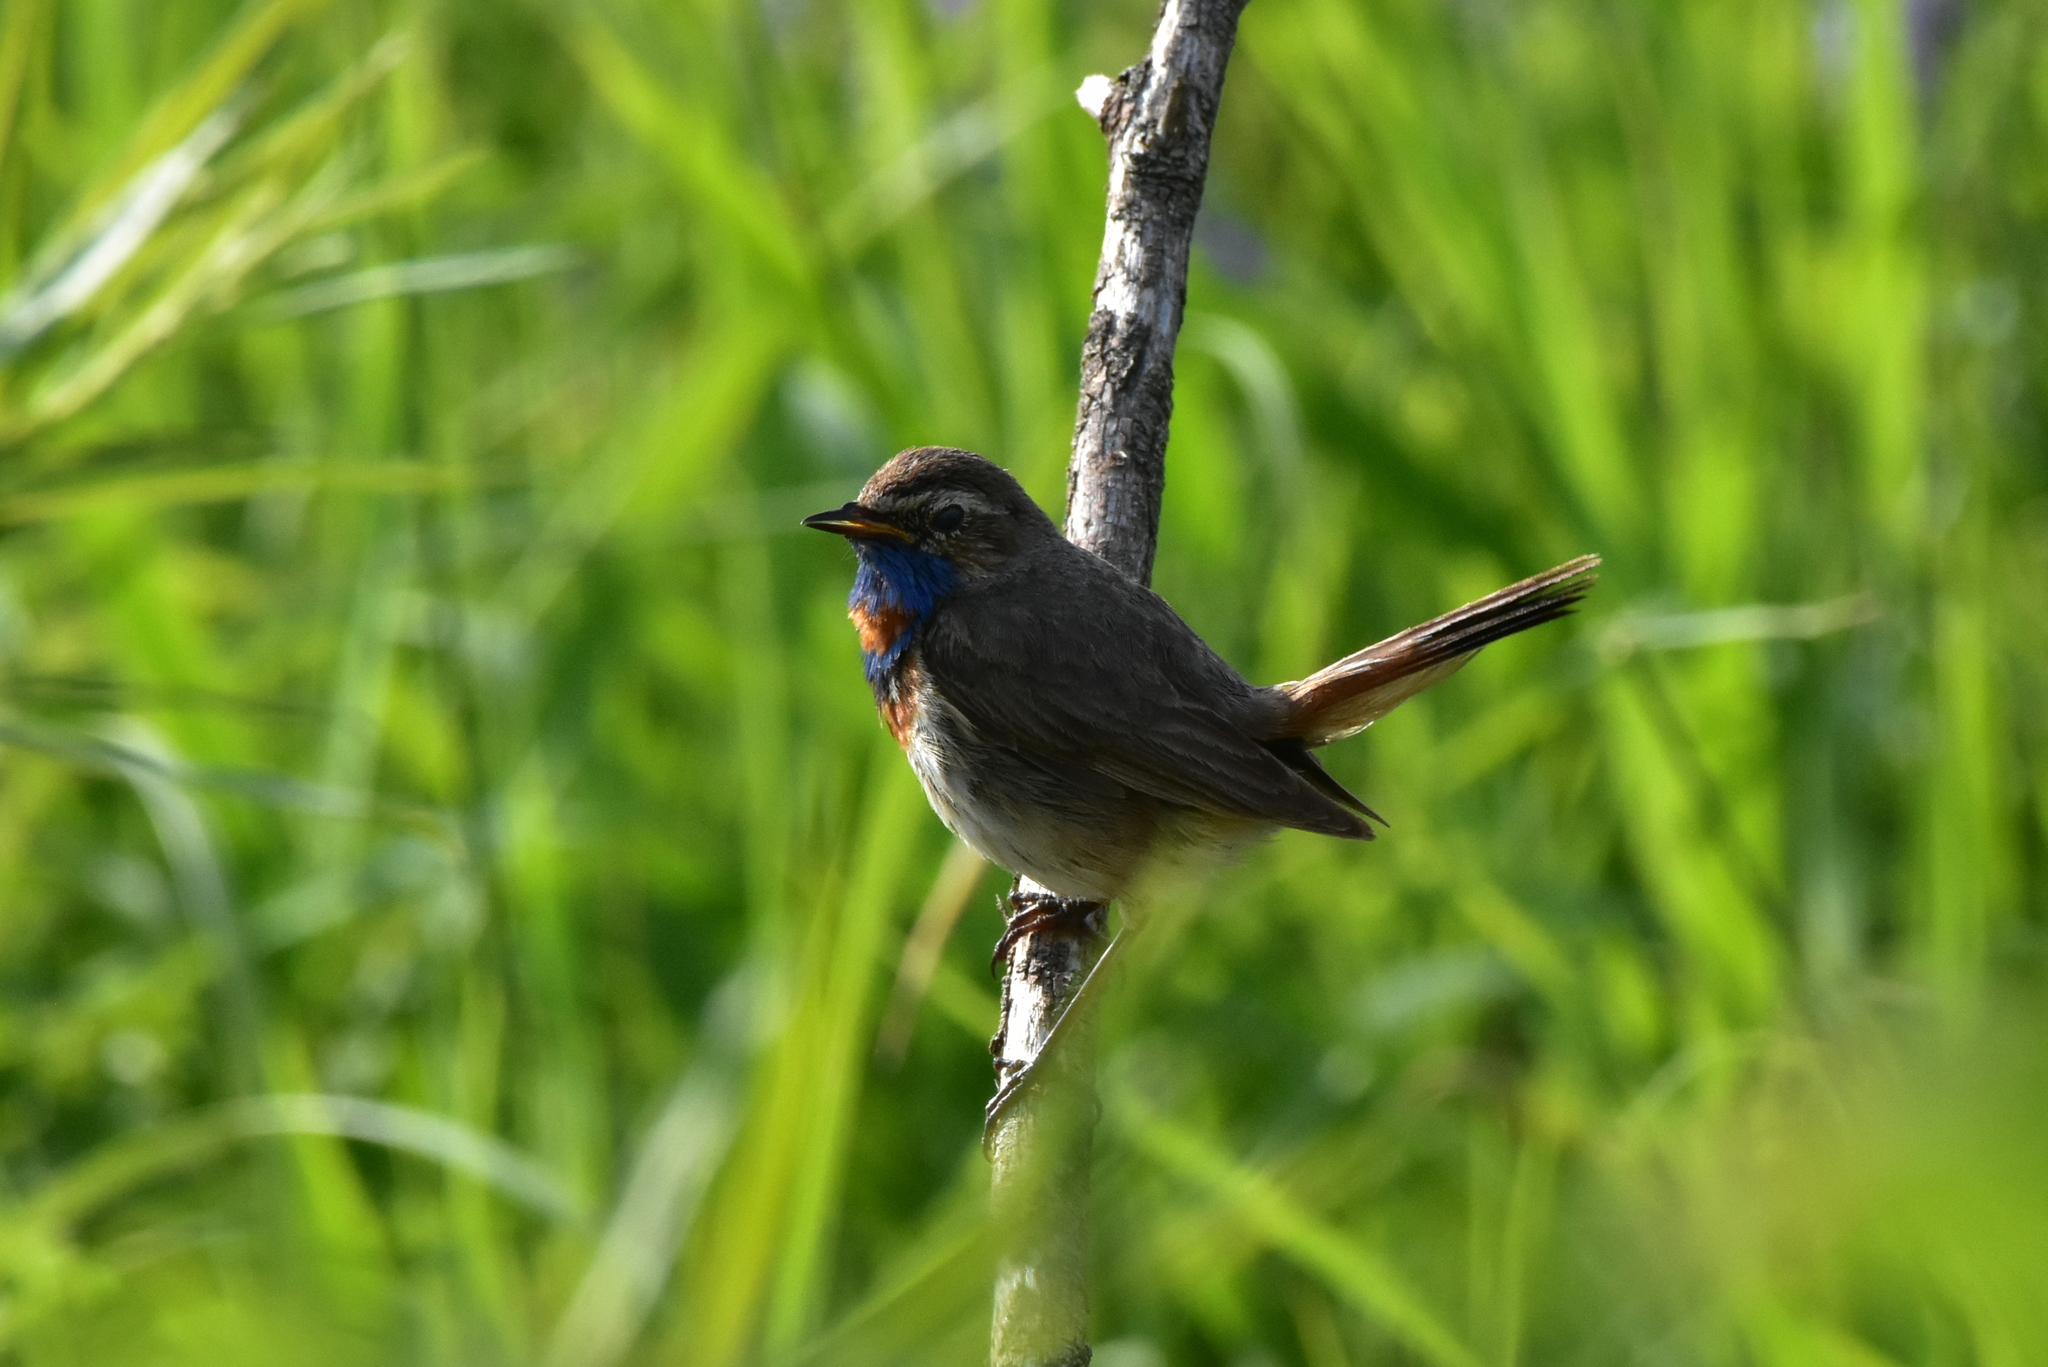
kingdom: Animalia
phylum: Chordata
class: Aves
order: Passeriformes
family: Muscicapidae
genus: Luscinia
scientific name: Luscinia svecica
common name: Bluethroat
